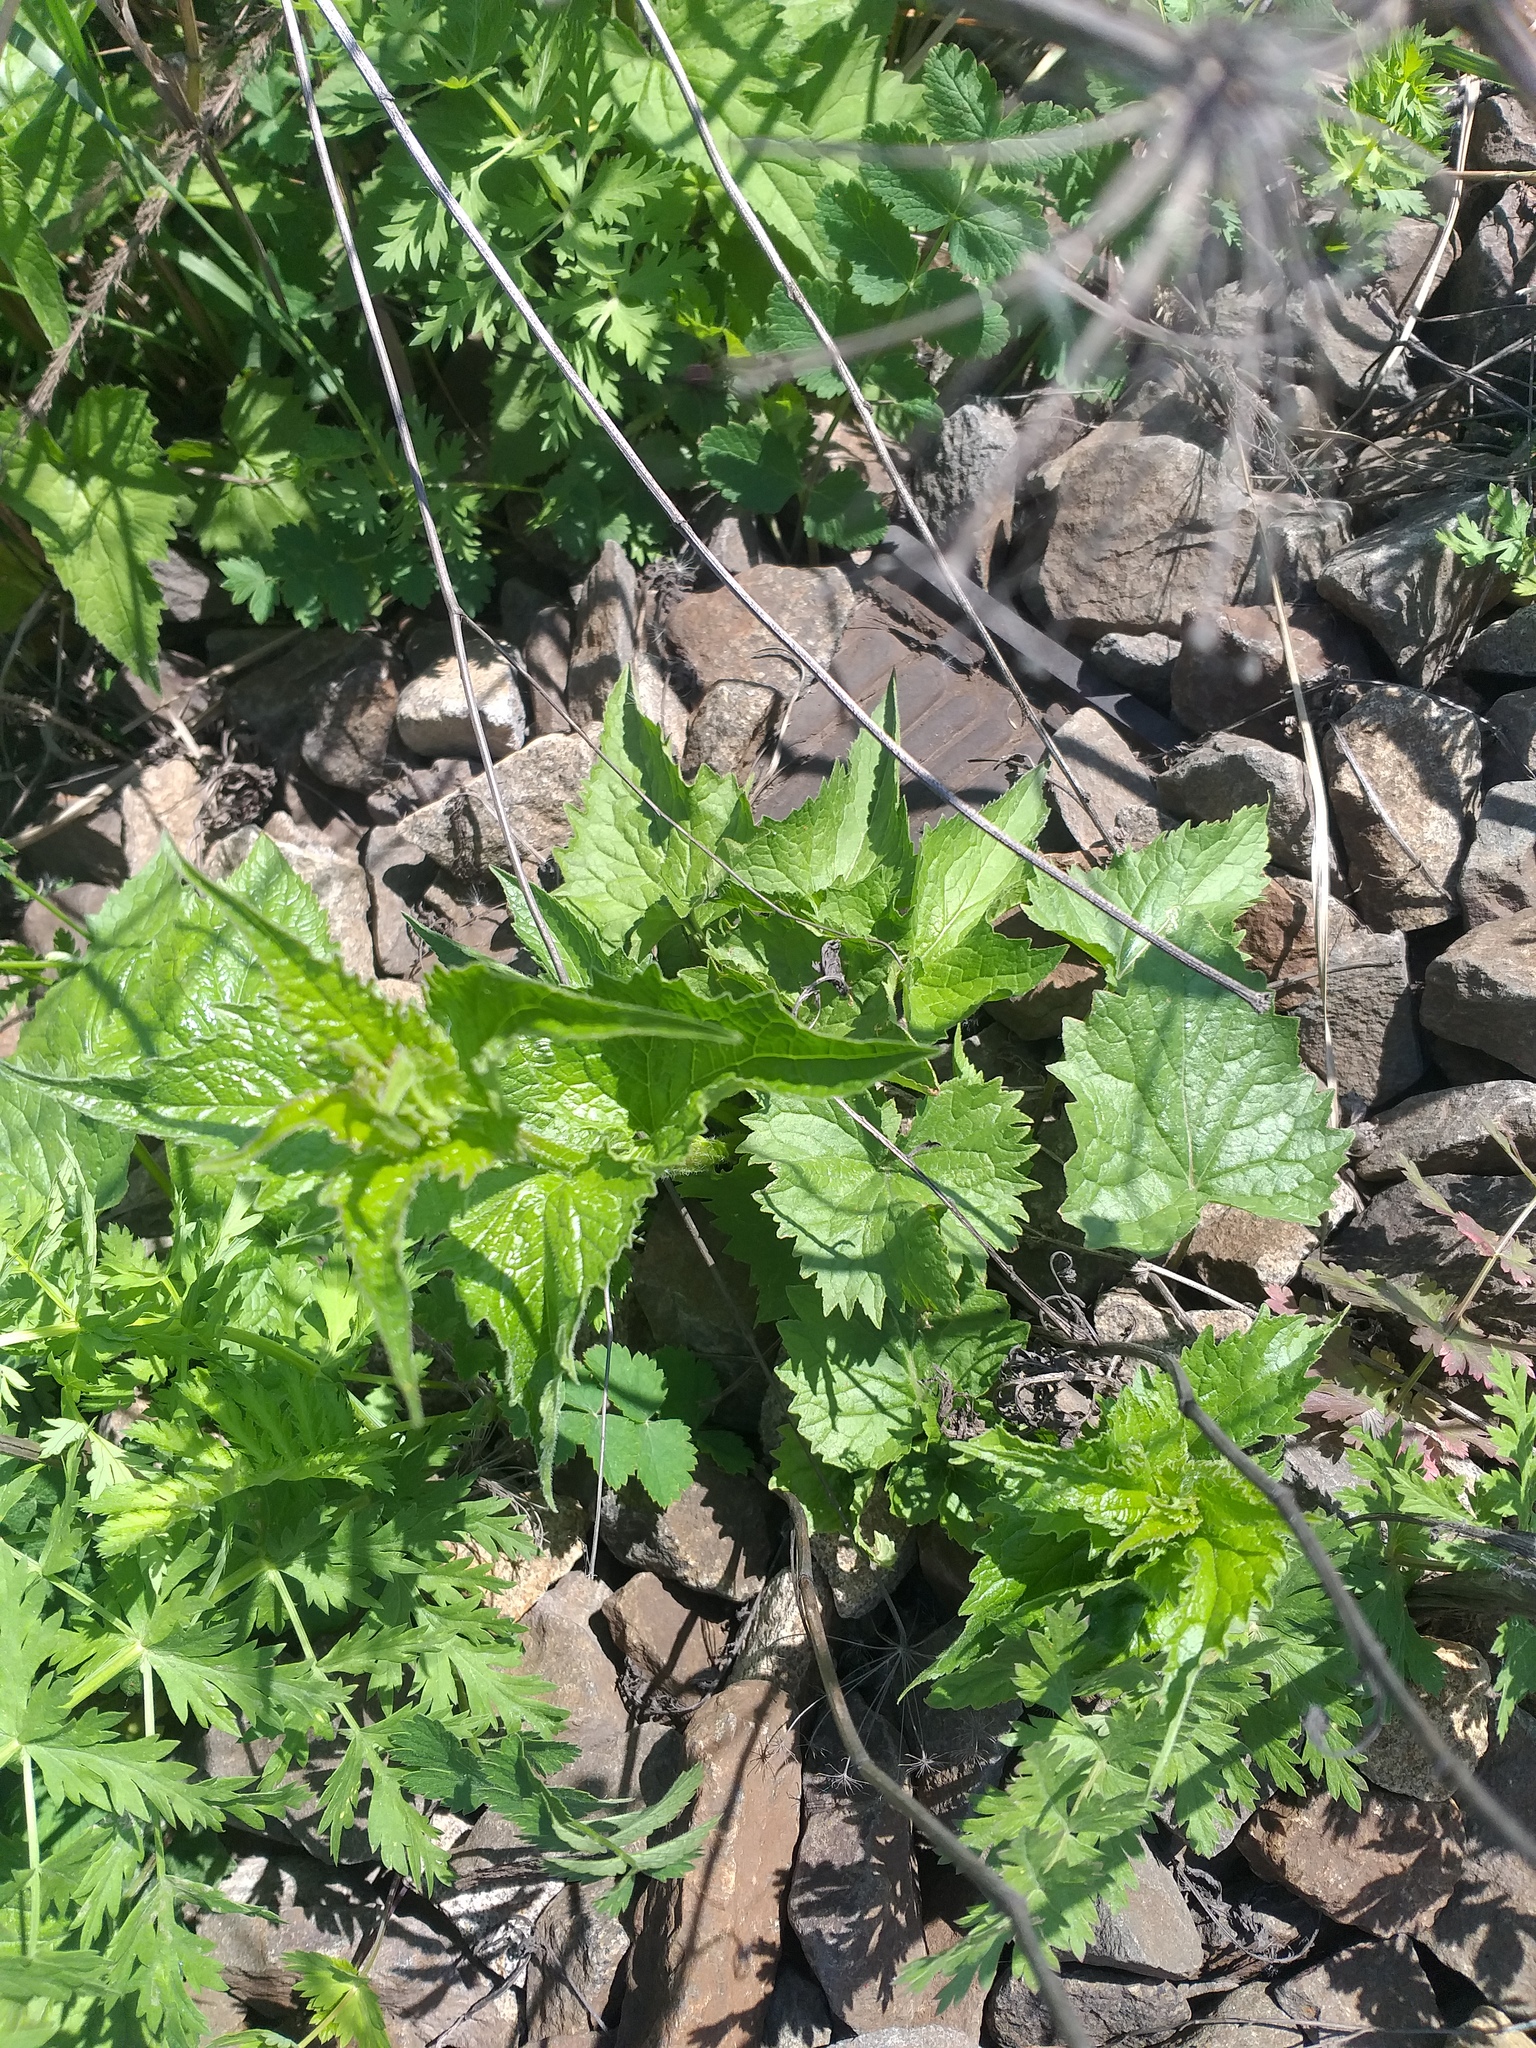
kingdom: Plantae
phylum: Tracheophyta
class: Magnoliopsida
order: Asterales
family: Campanulaceae
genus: Campanula
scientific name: Campanula trachelium
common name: Nettle-leaved bellflower
